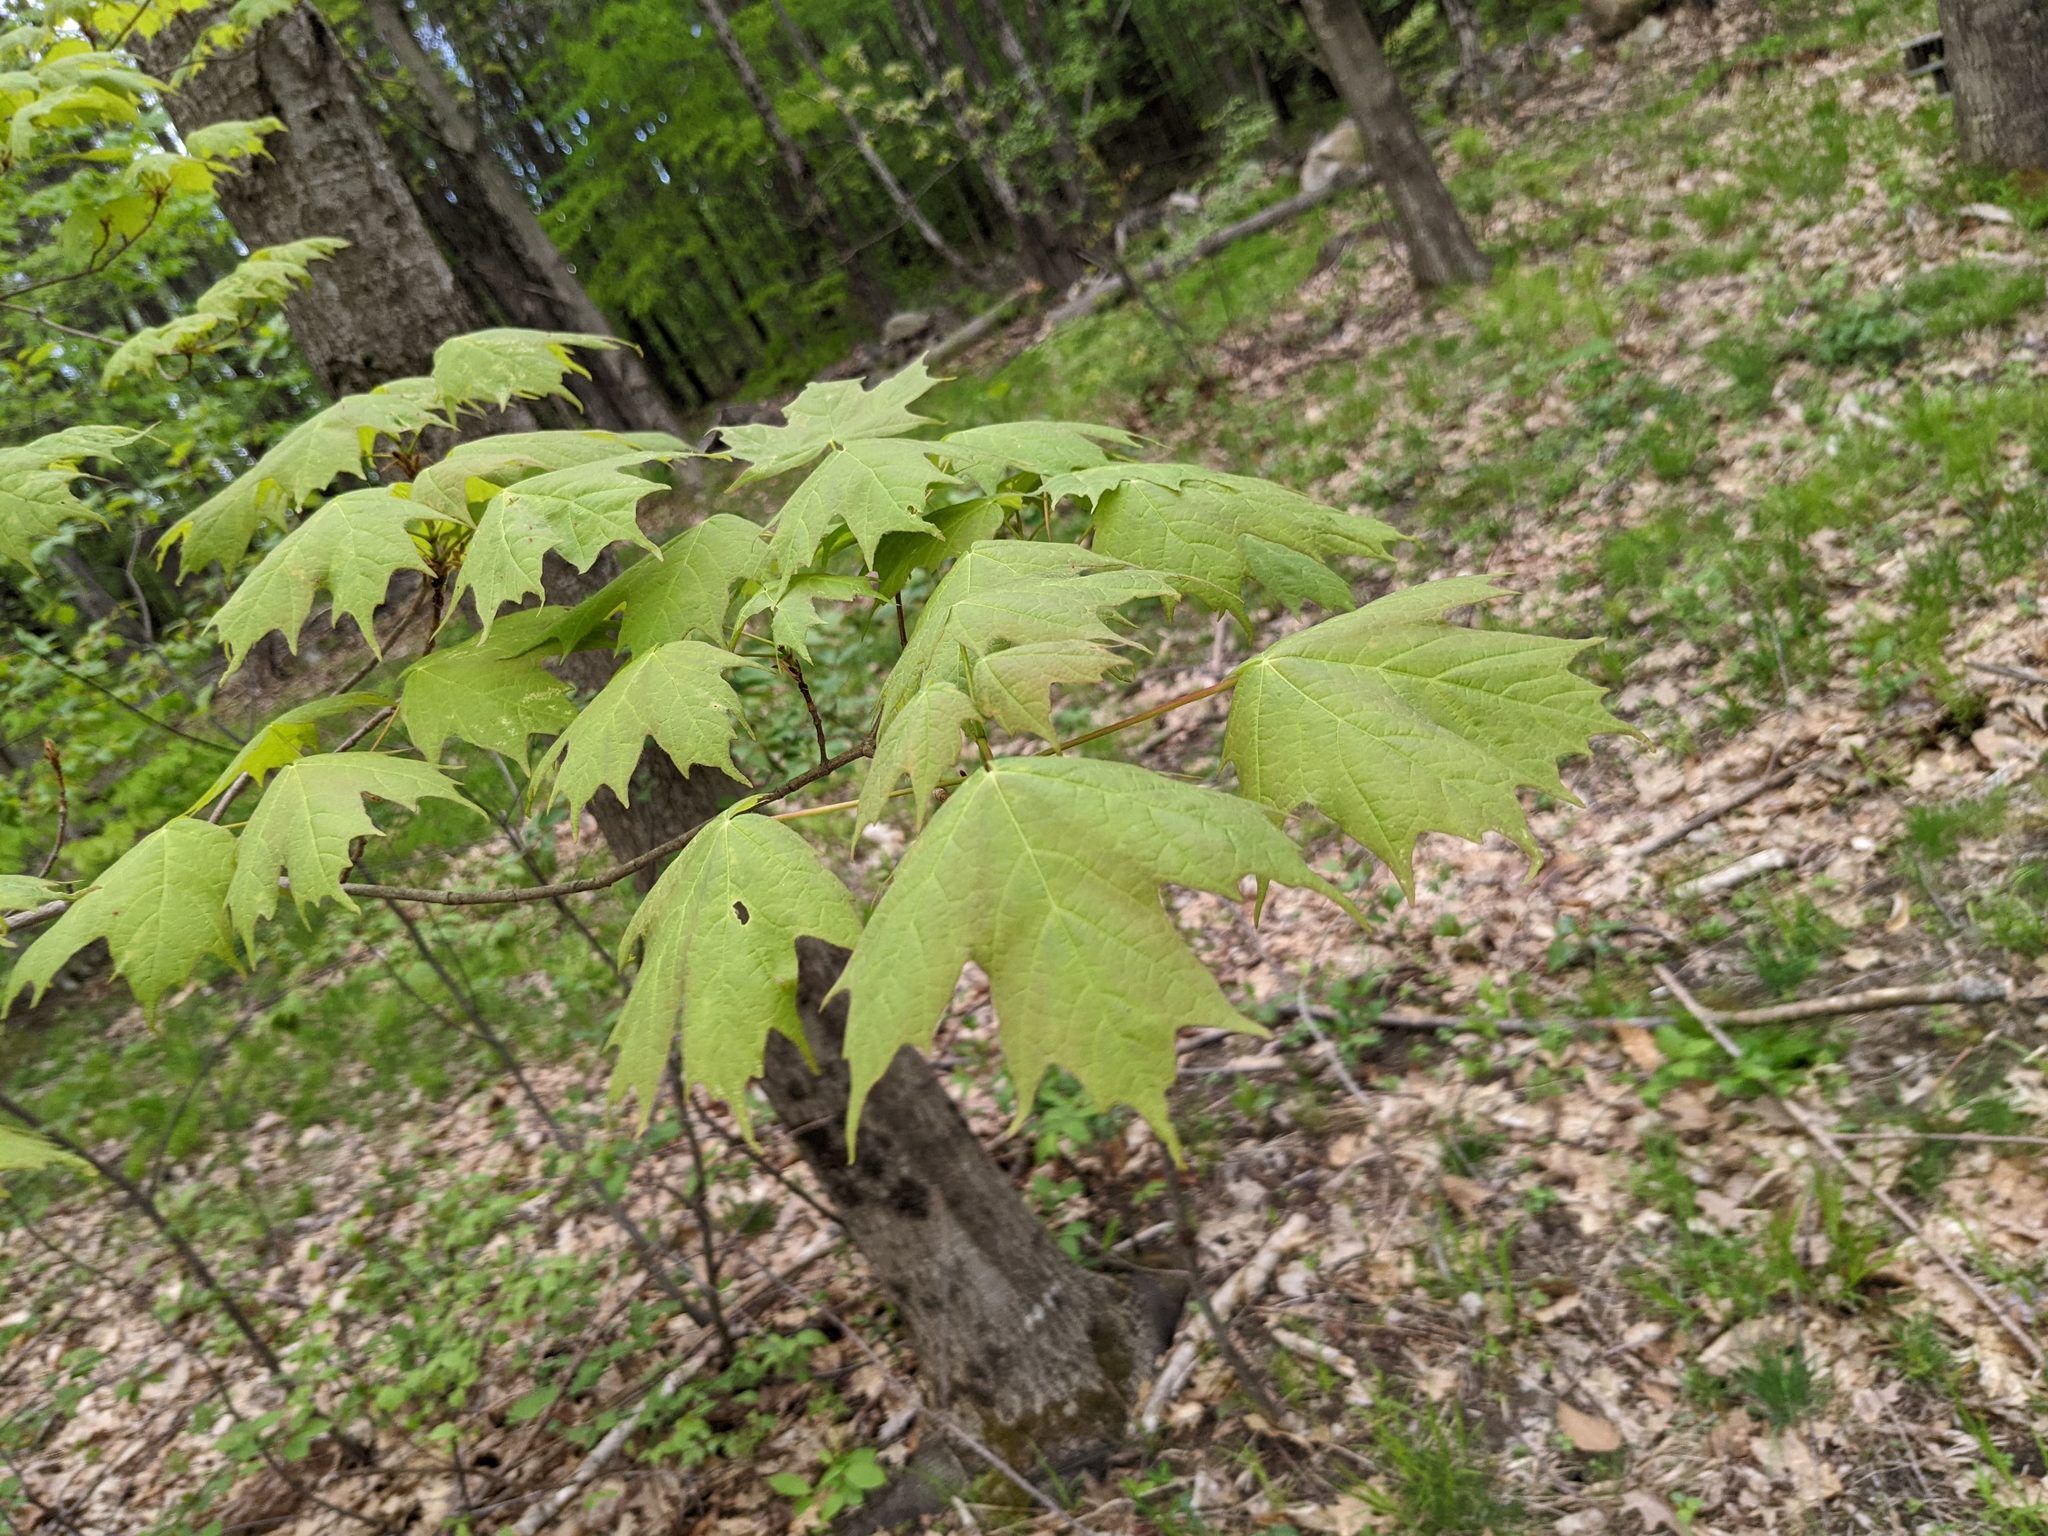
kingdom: Plantae
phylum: Tracheophyta
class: Magnoliopsida
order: Sapindales
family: Sapindaceae
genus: Acer
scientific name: Acer saccharum
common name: Sugar maple
